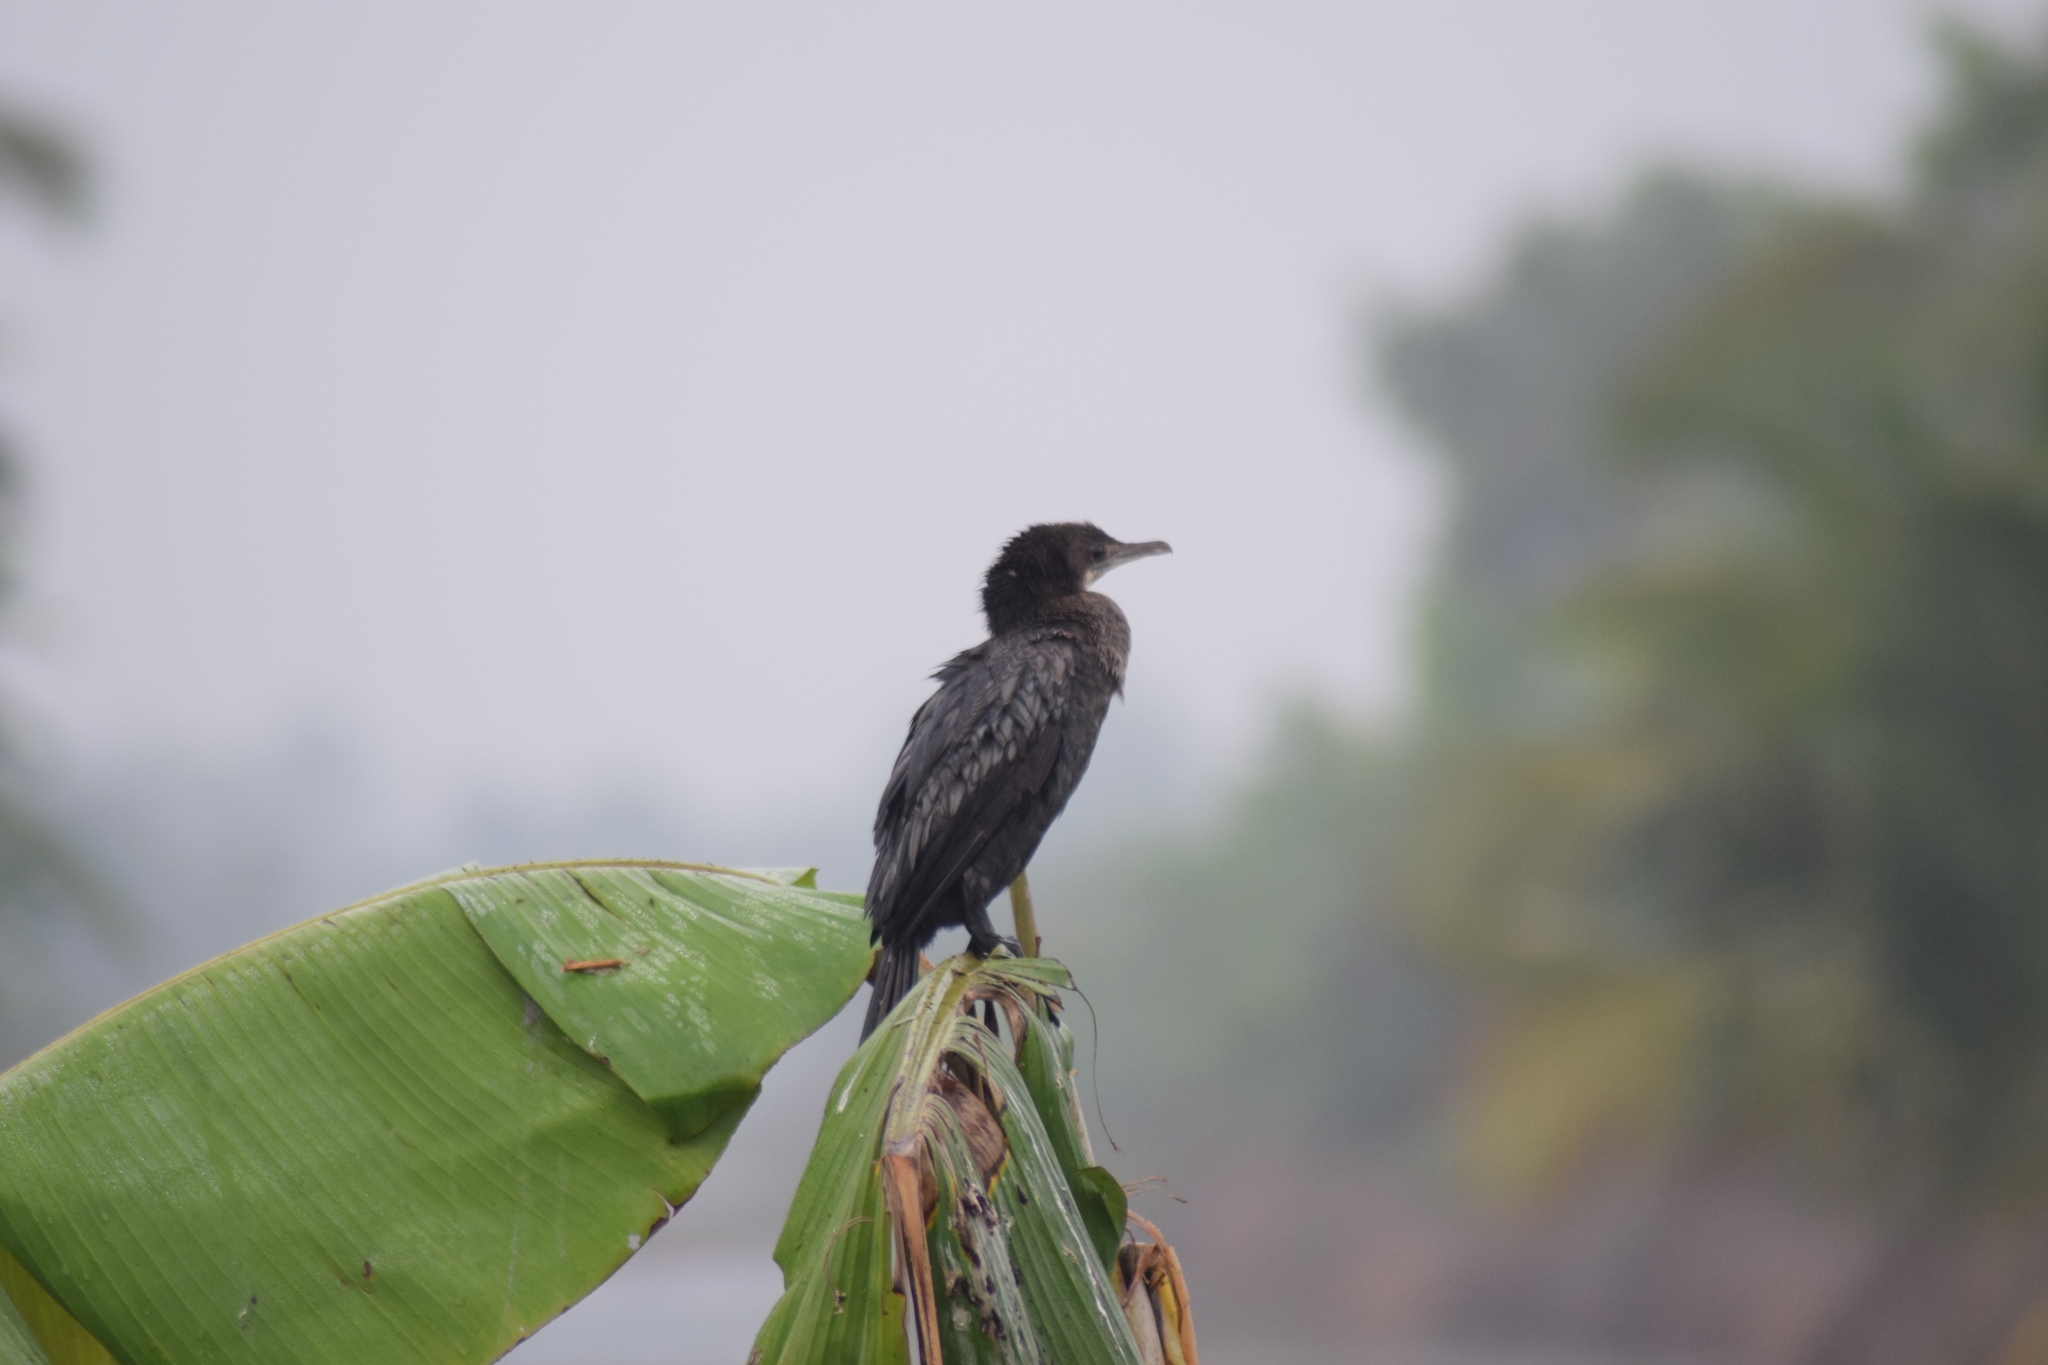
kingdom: Animalia
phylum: Chordata
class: Aves
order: Suliformes
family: Phalacrocoracidae
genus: Microcarbo
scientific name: Microcarbo niger
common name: Little cormorant
